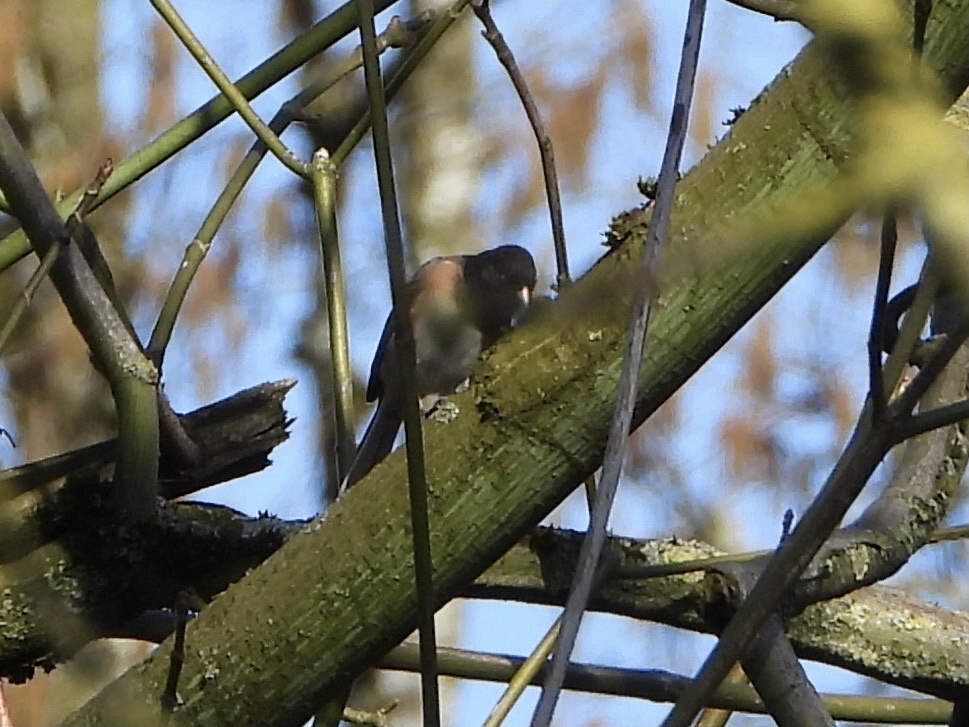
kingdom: Animalia
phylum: Chordata
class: Aves
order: Passeriformes
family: Passerellidae
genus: Junco
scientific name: Junco hyemalis
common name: Dark-eyed junco
